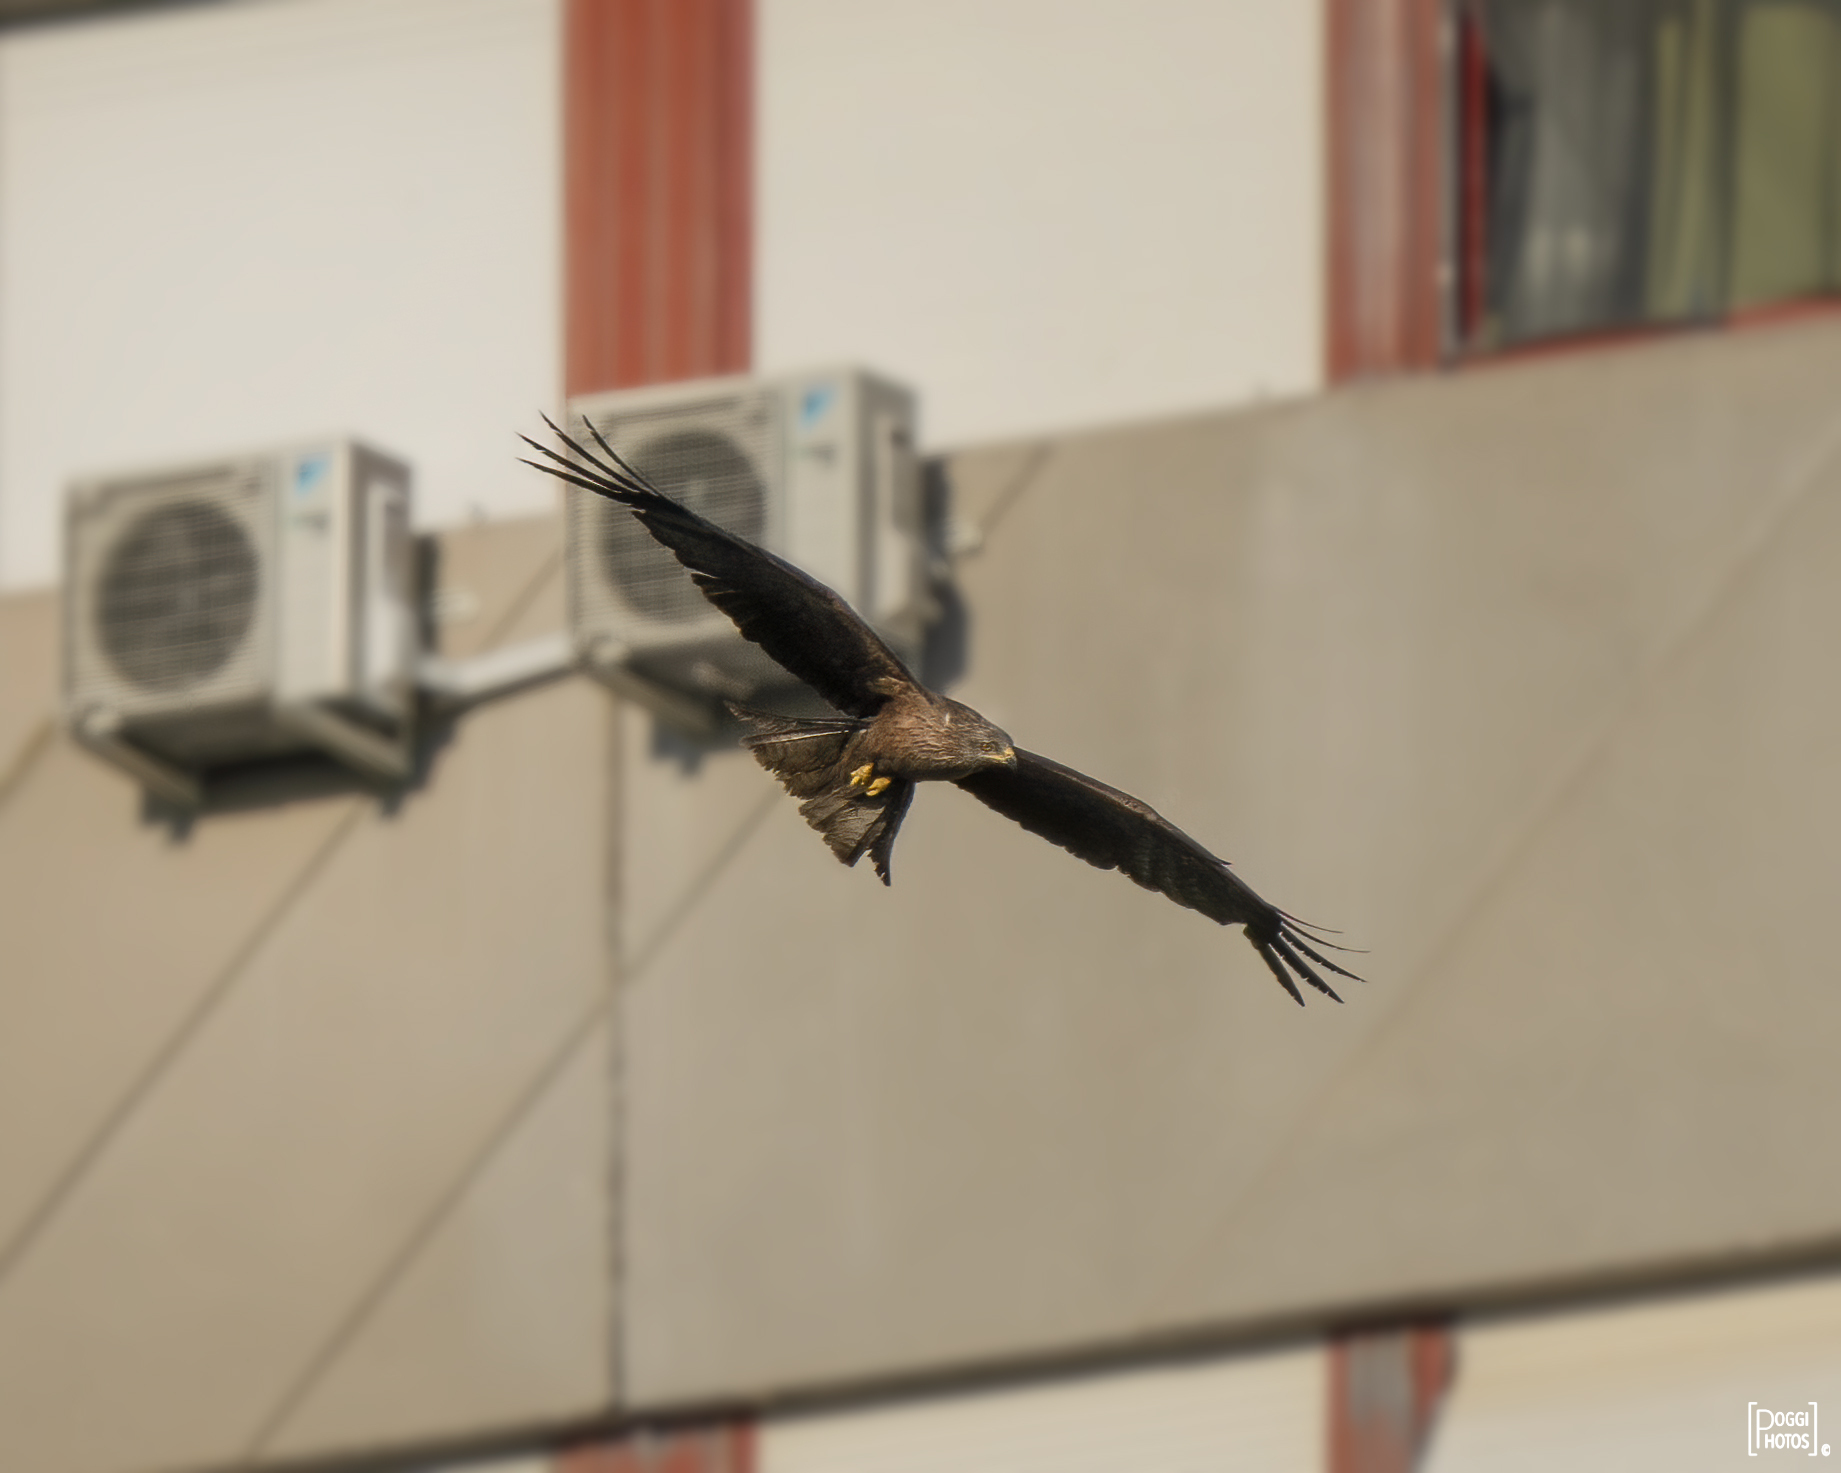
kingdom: Animalia
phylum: Chordata
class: Aves
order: Accipitriformes
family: Accipitridae
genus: Milvus
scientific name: Milvus migrans
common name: Black kite
